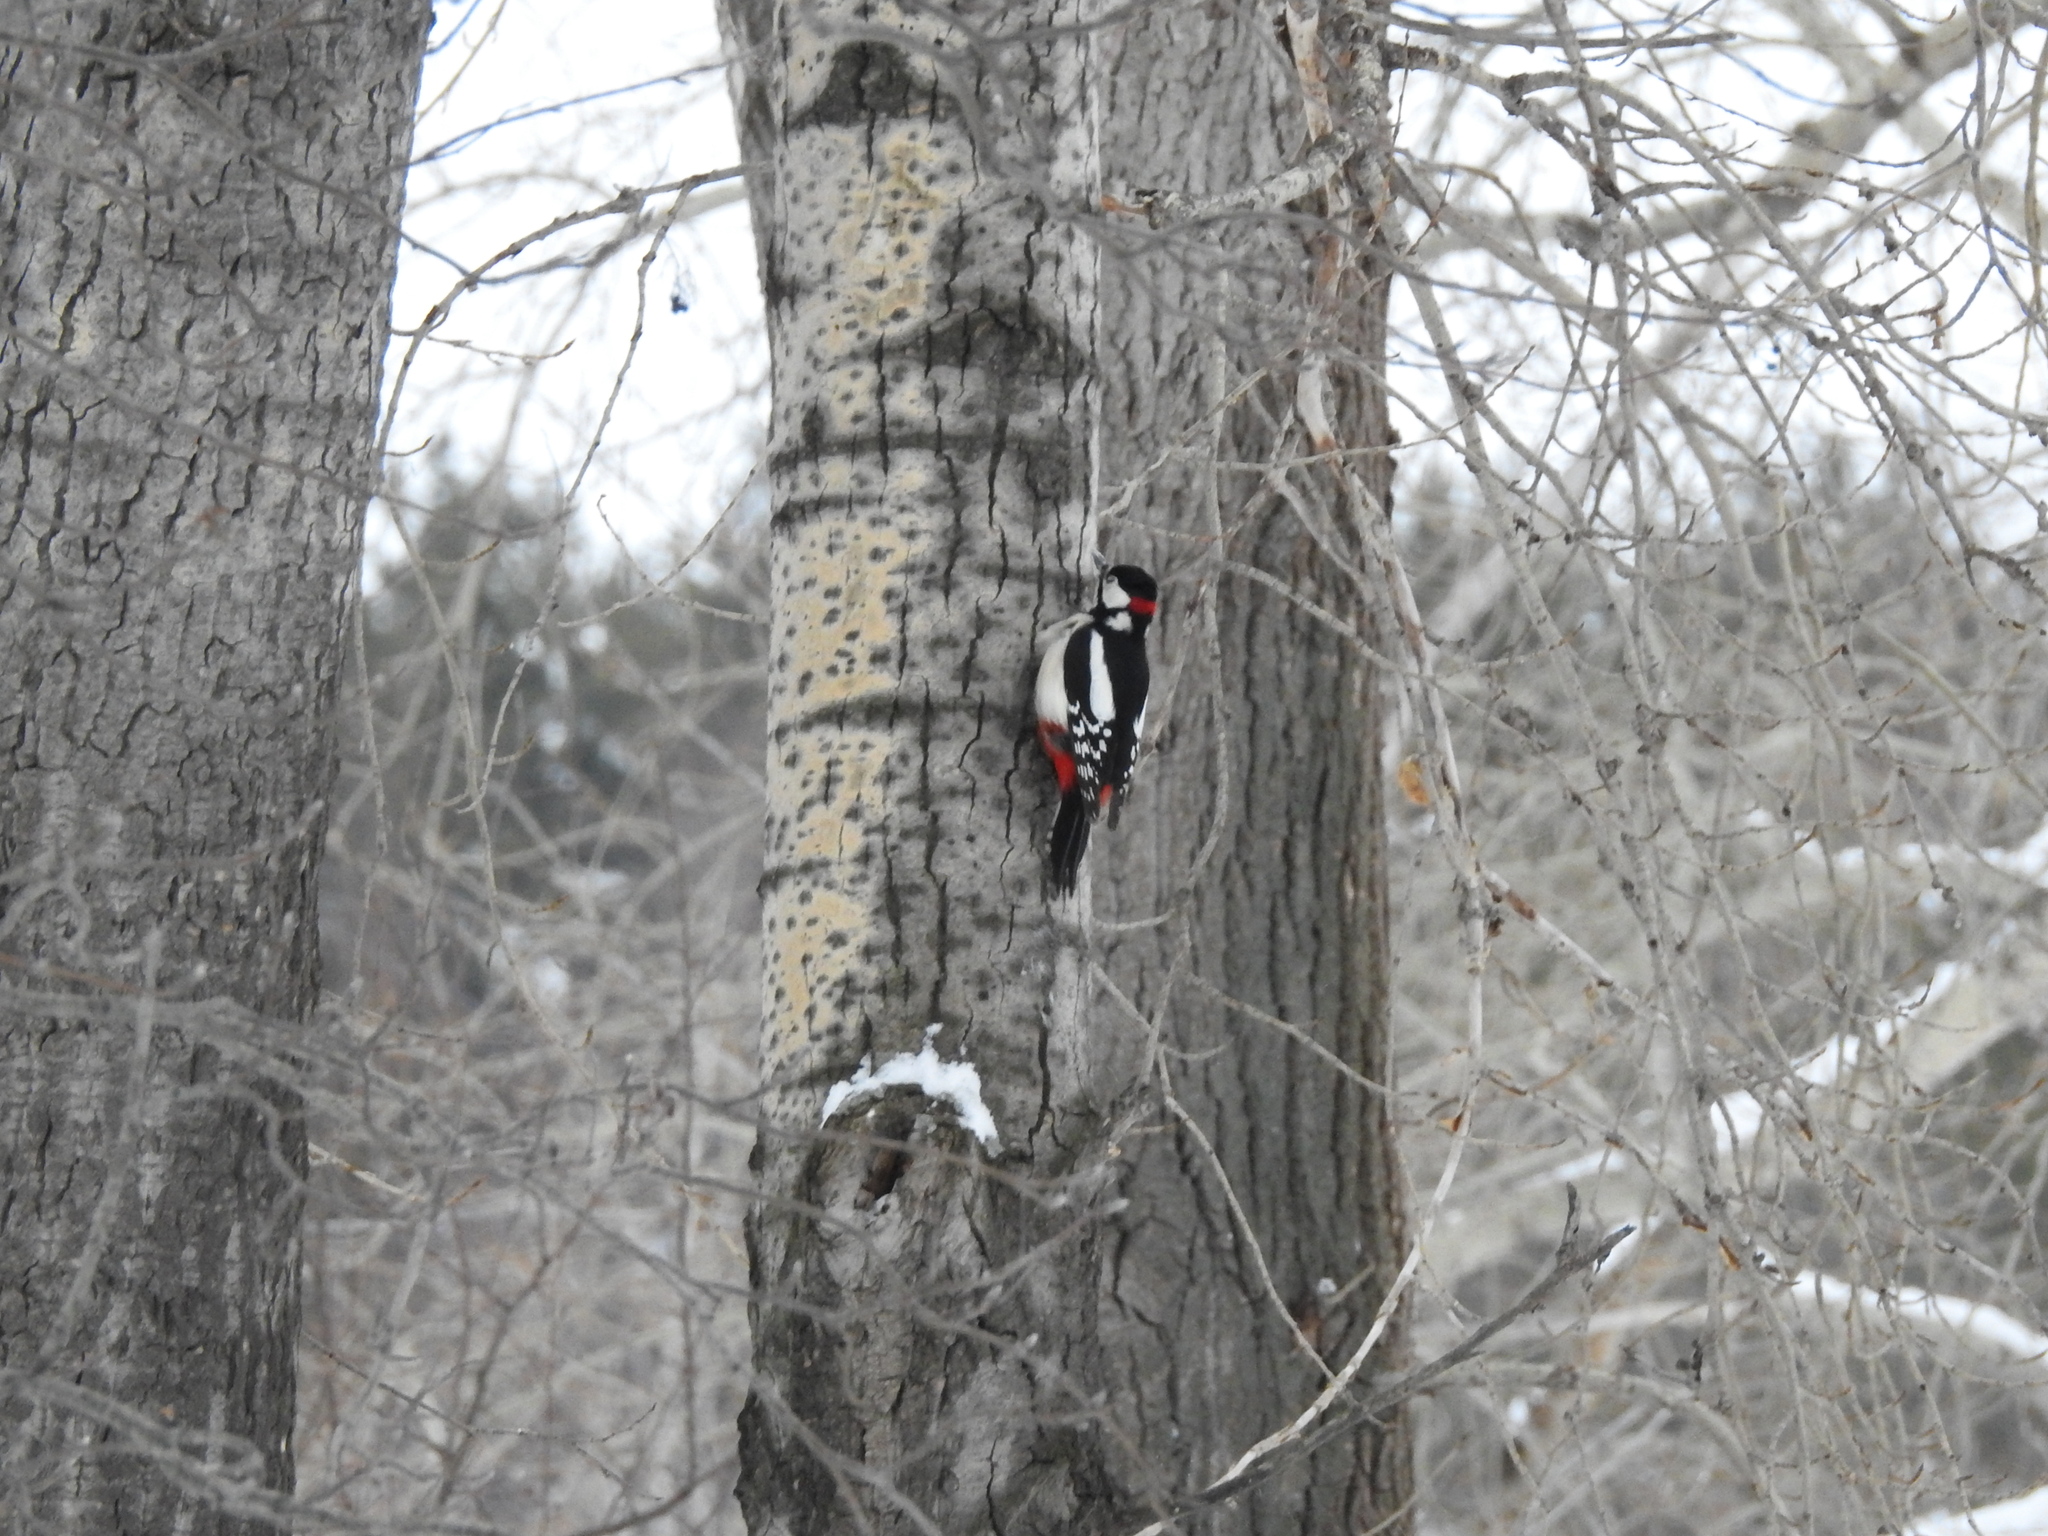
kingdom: Animalia
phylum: Chordata
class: Aves
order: Piciformes
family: Picidae
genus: Dendrocopos
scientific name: Dendrocopos major
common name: Great spotted woodpecker
